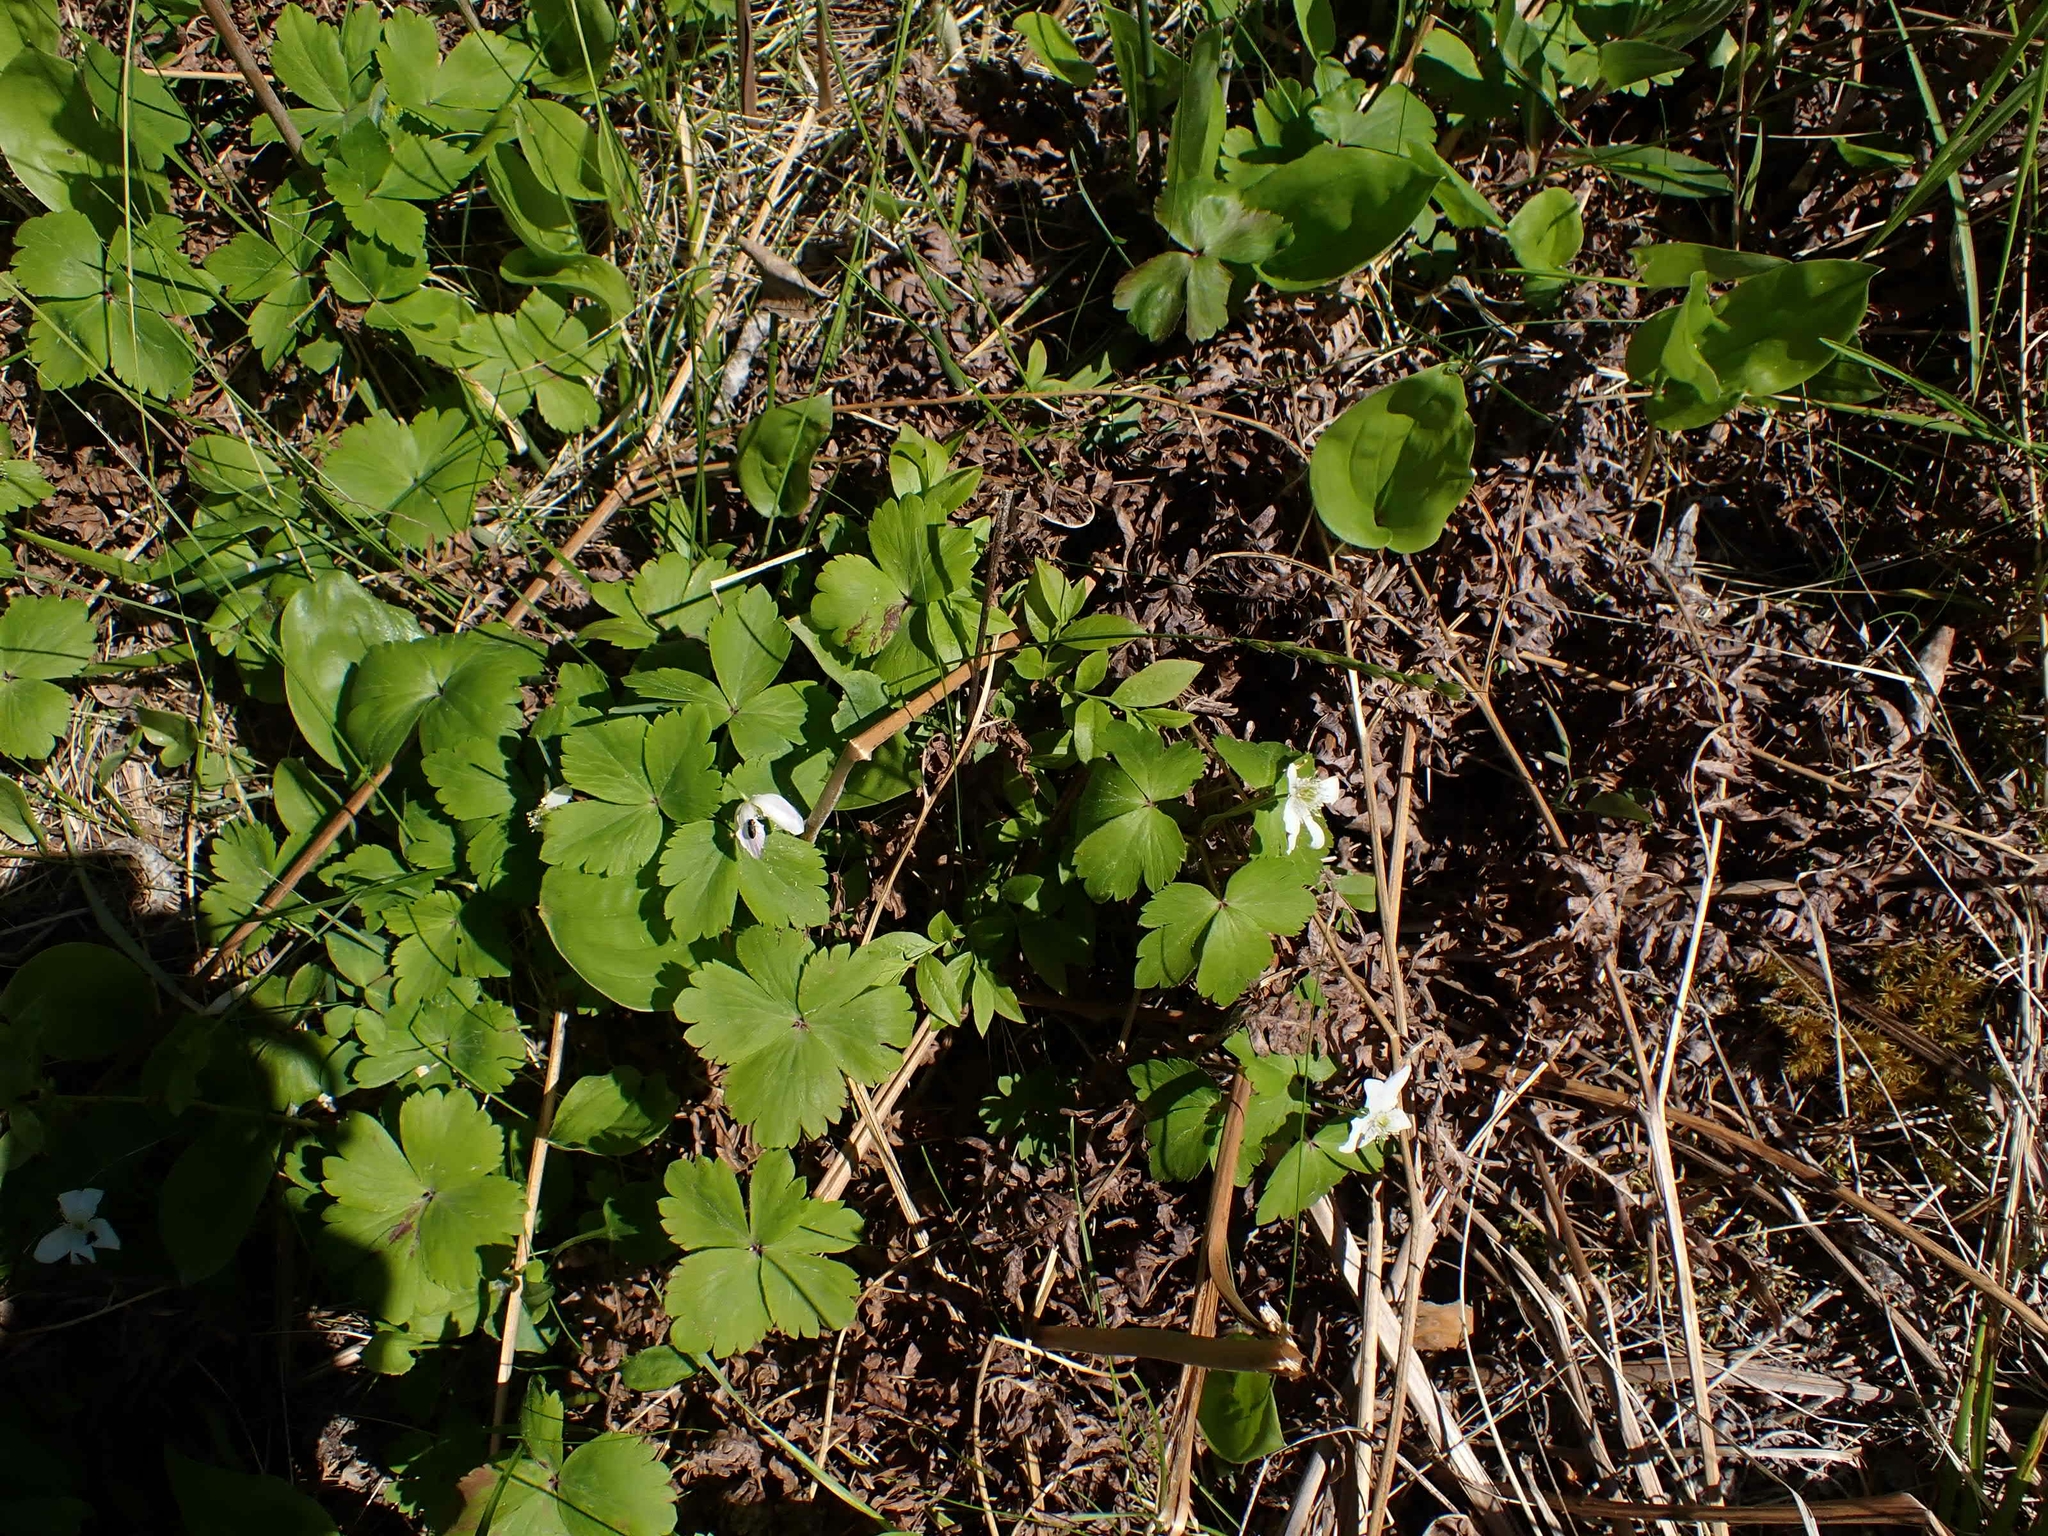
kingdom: Plantae
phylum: Tracheophyta
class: Magnoliopsida
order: Ranunculales
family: Ranunculaceae
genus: Anemone
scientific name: Anemone quinquefolia
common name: Wood anemone
